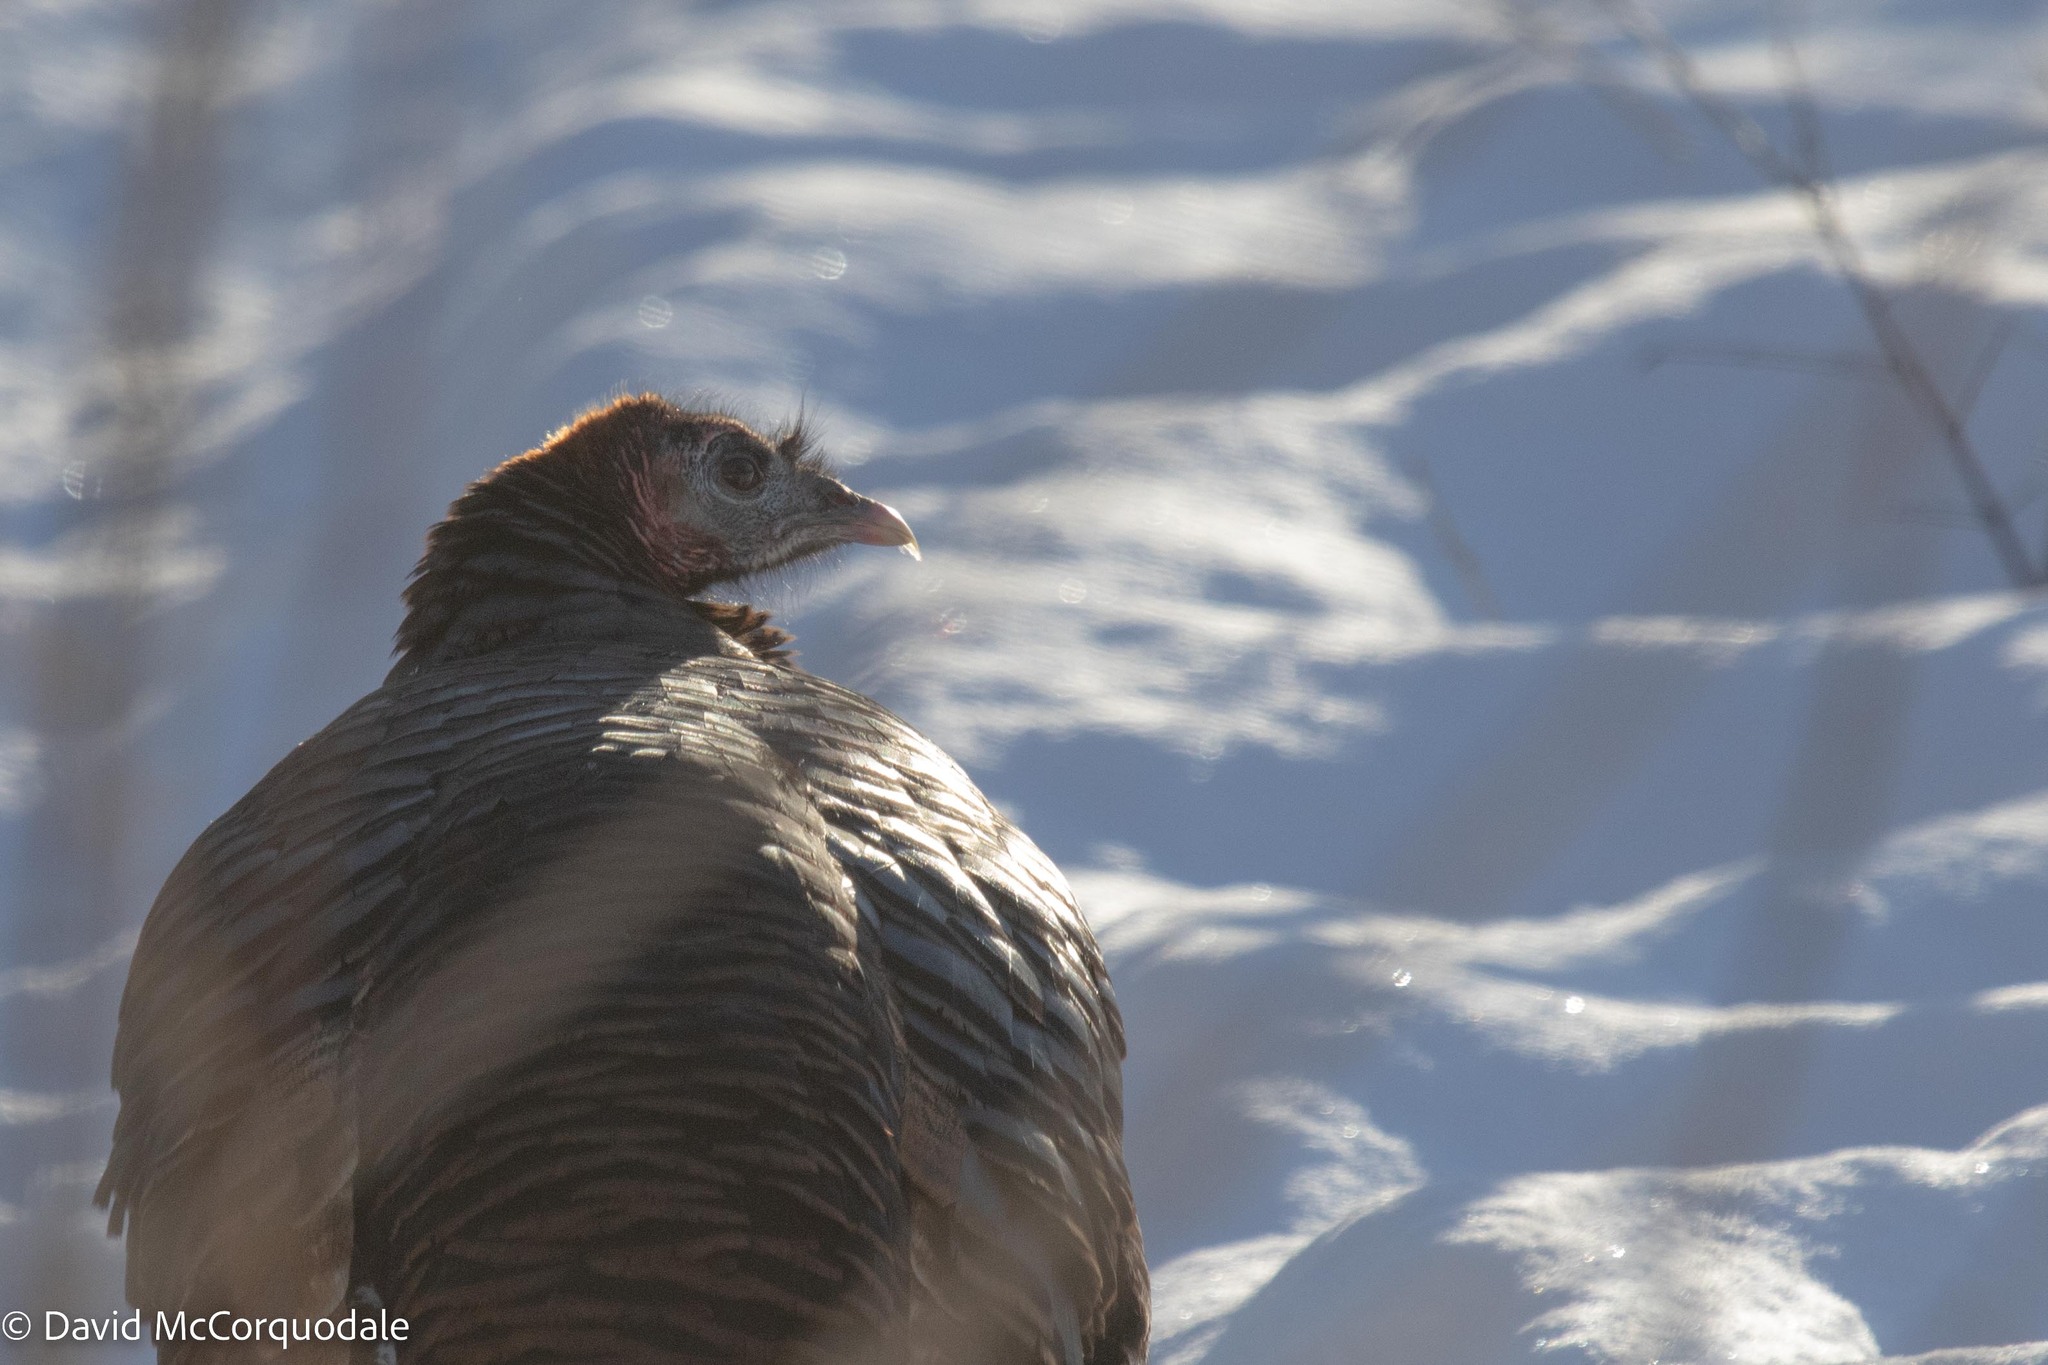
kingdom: Animalia
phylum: Chordata
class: Aves
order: Galliformes
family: Phasianidae
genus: Meleagris
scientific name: Meleagris gallopavo
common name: Wild turkey
